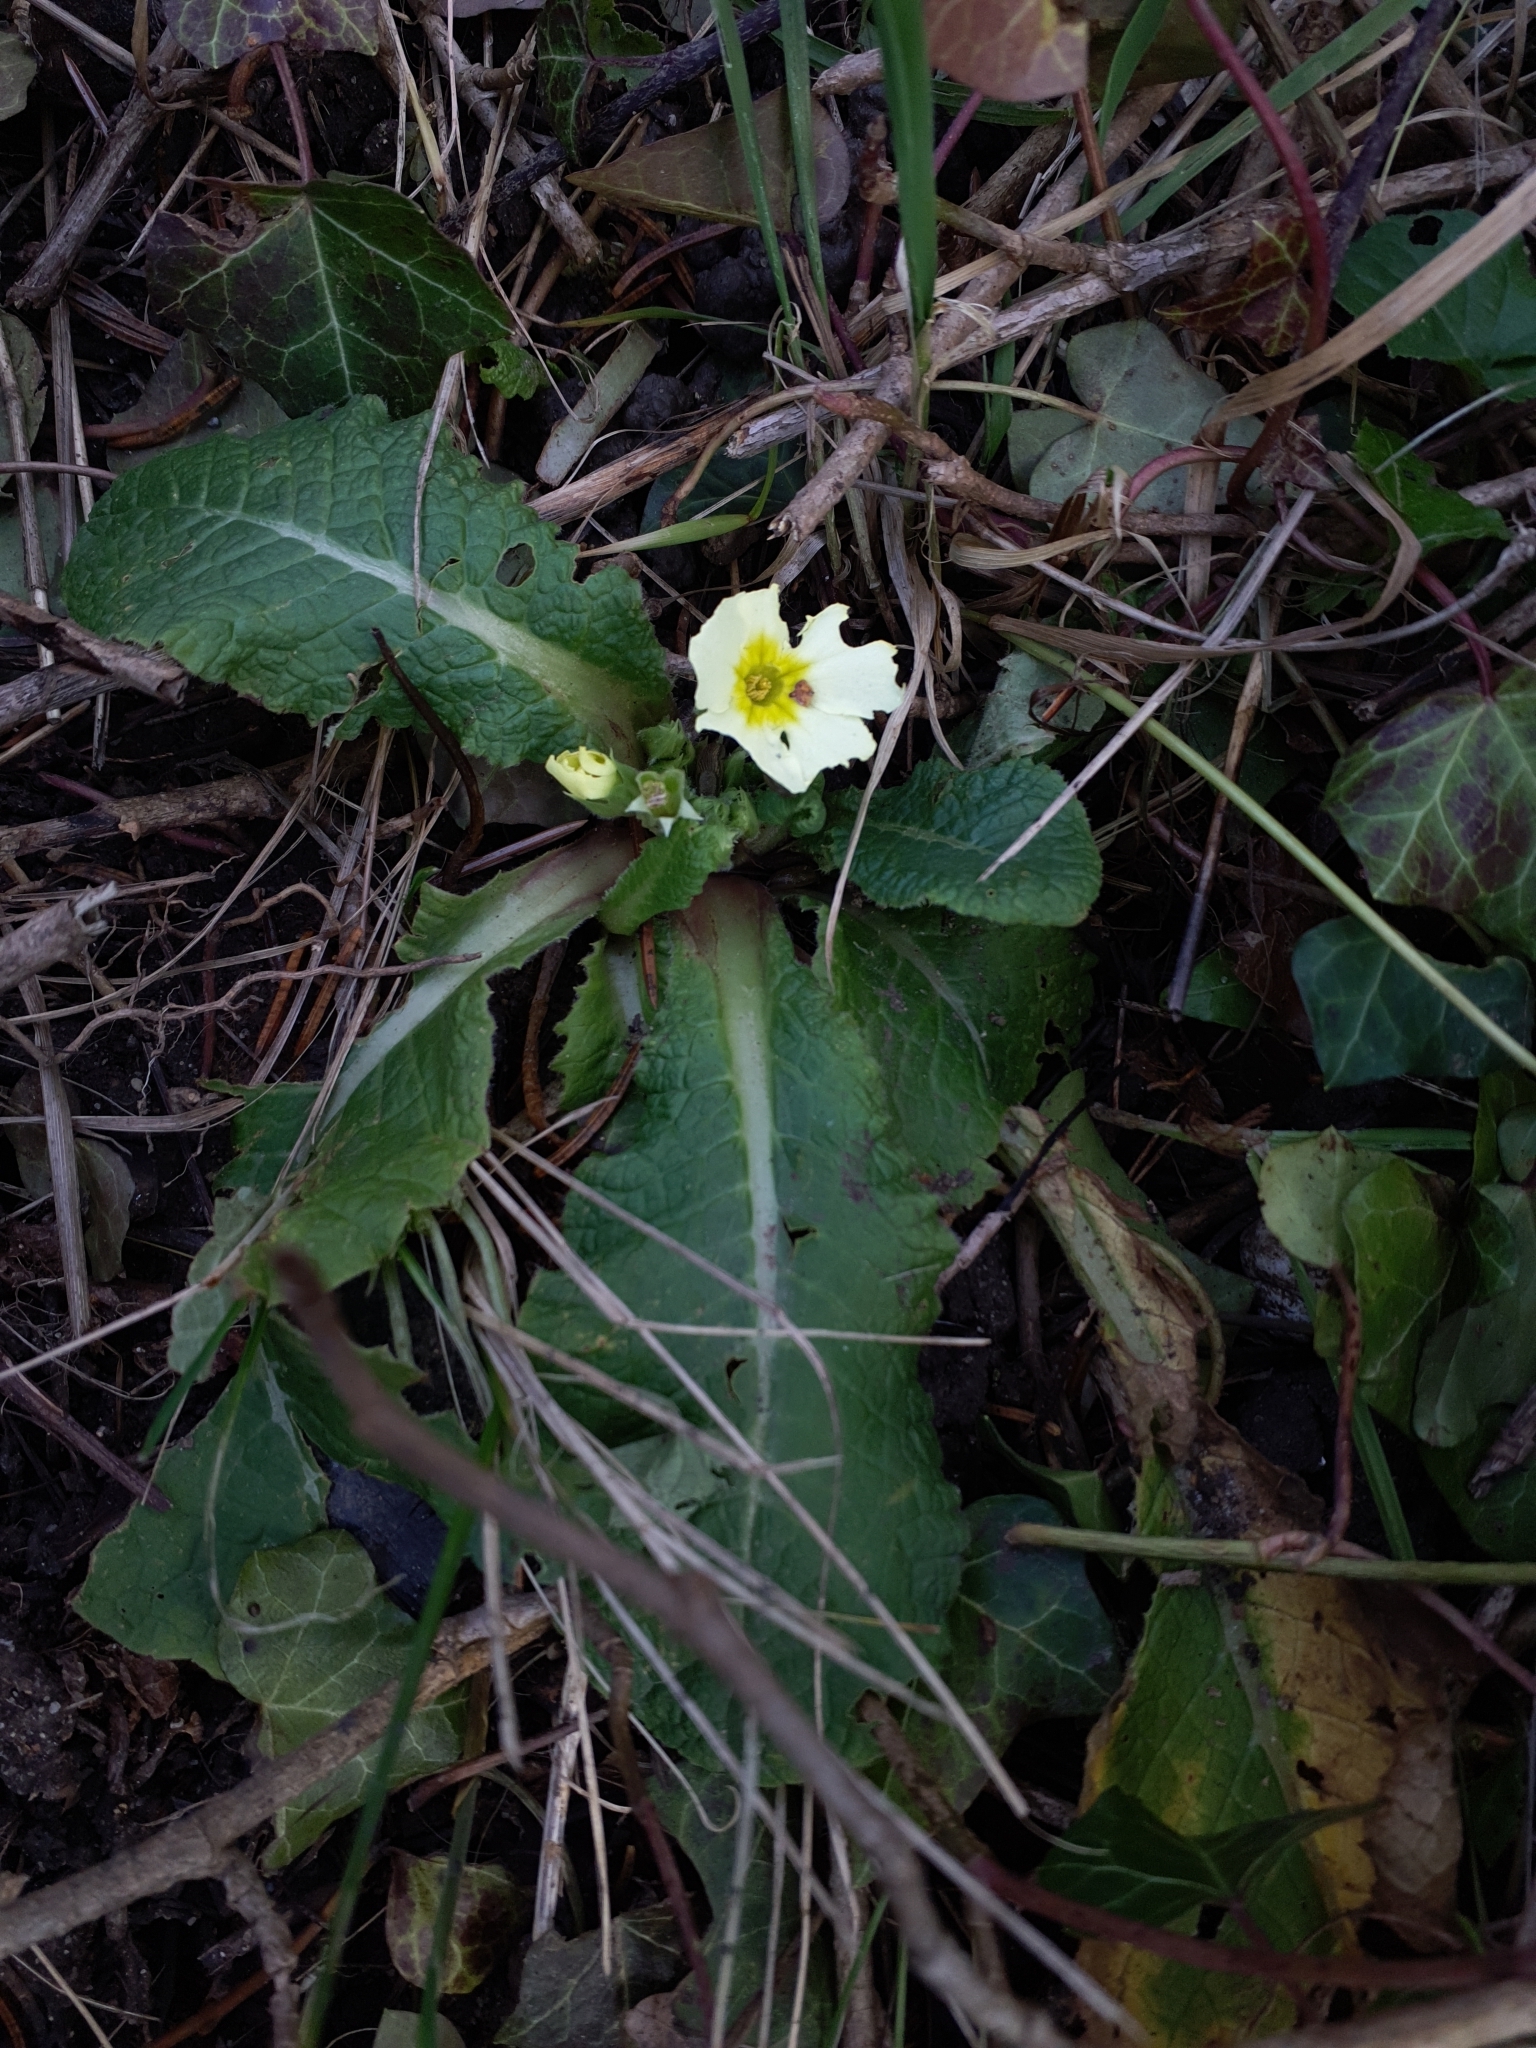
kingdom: Plantae
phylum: Tracheophyta
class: Magnoliopsida
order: Ericales
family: Primulaceae
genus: Primula
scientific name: Primula vulgaris
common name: Primrose
